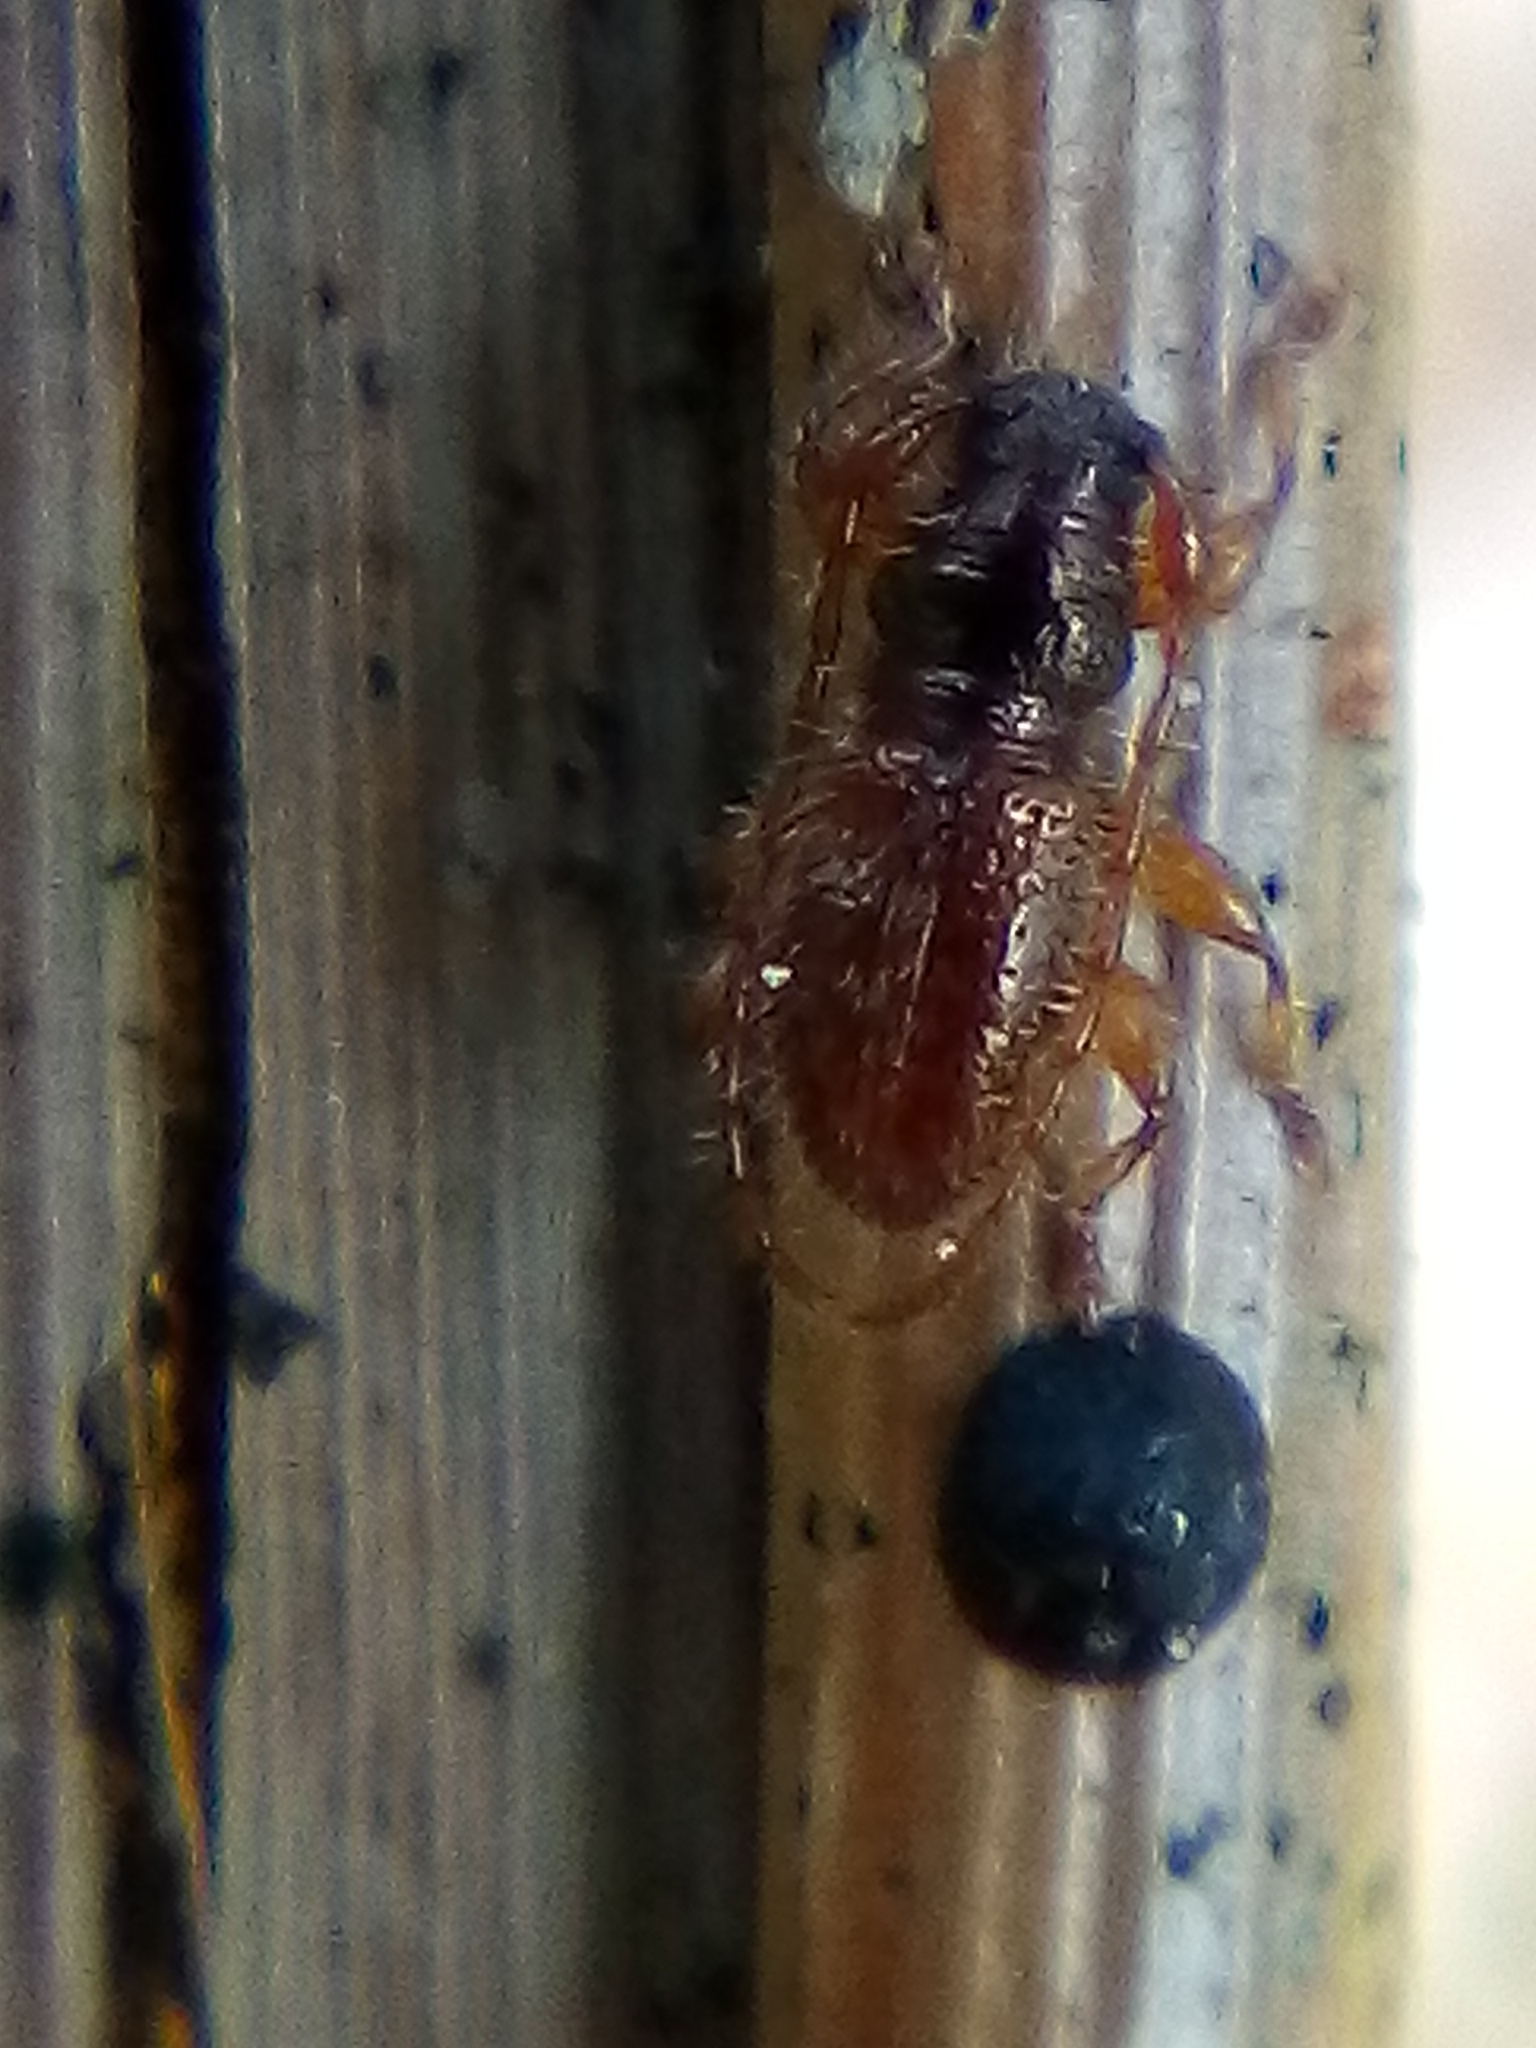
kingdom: Animalia
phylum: Arthropoda
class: Insecta
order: Coleoptera
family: Cerambycidae
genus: Microlamia
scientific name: Microlamia pygmaea
